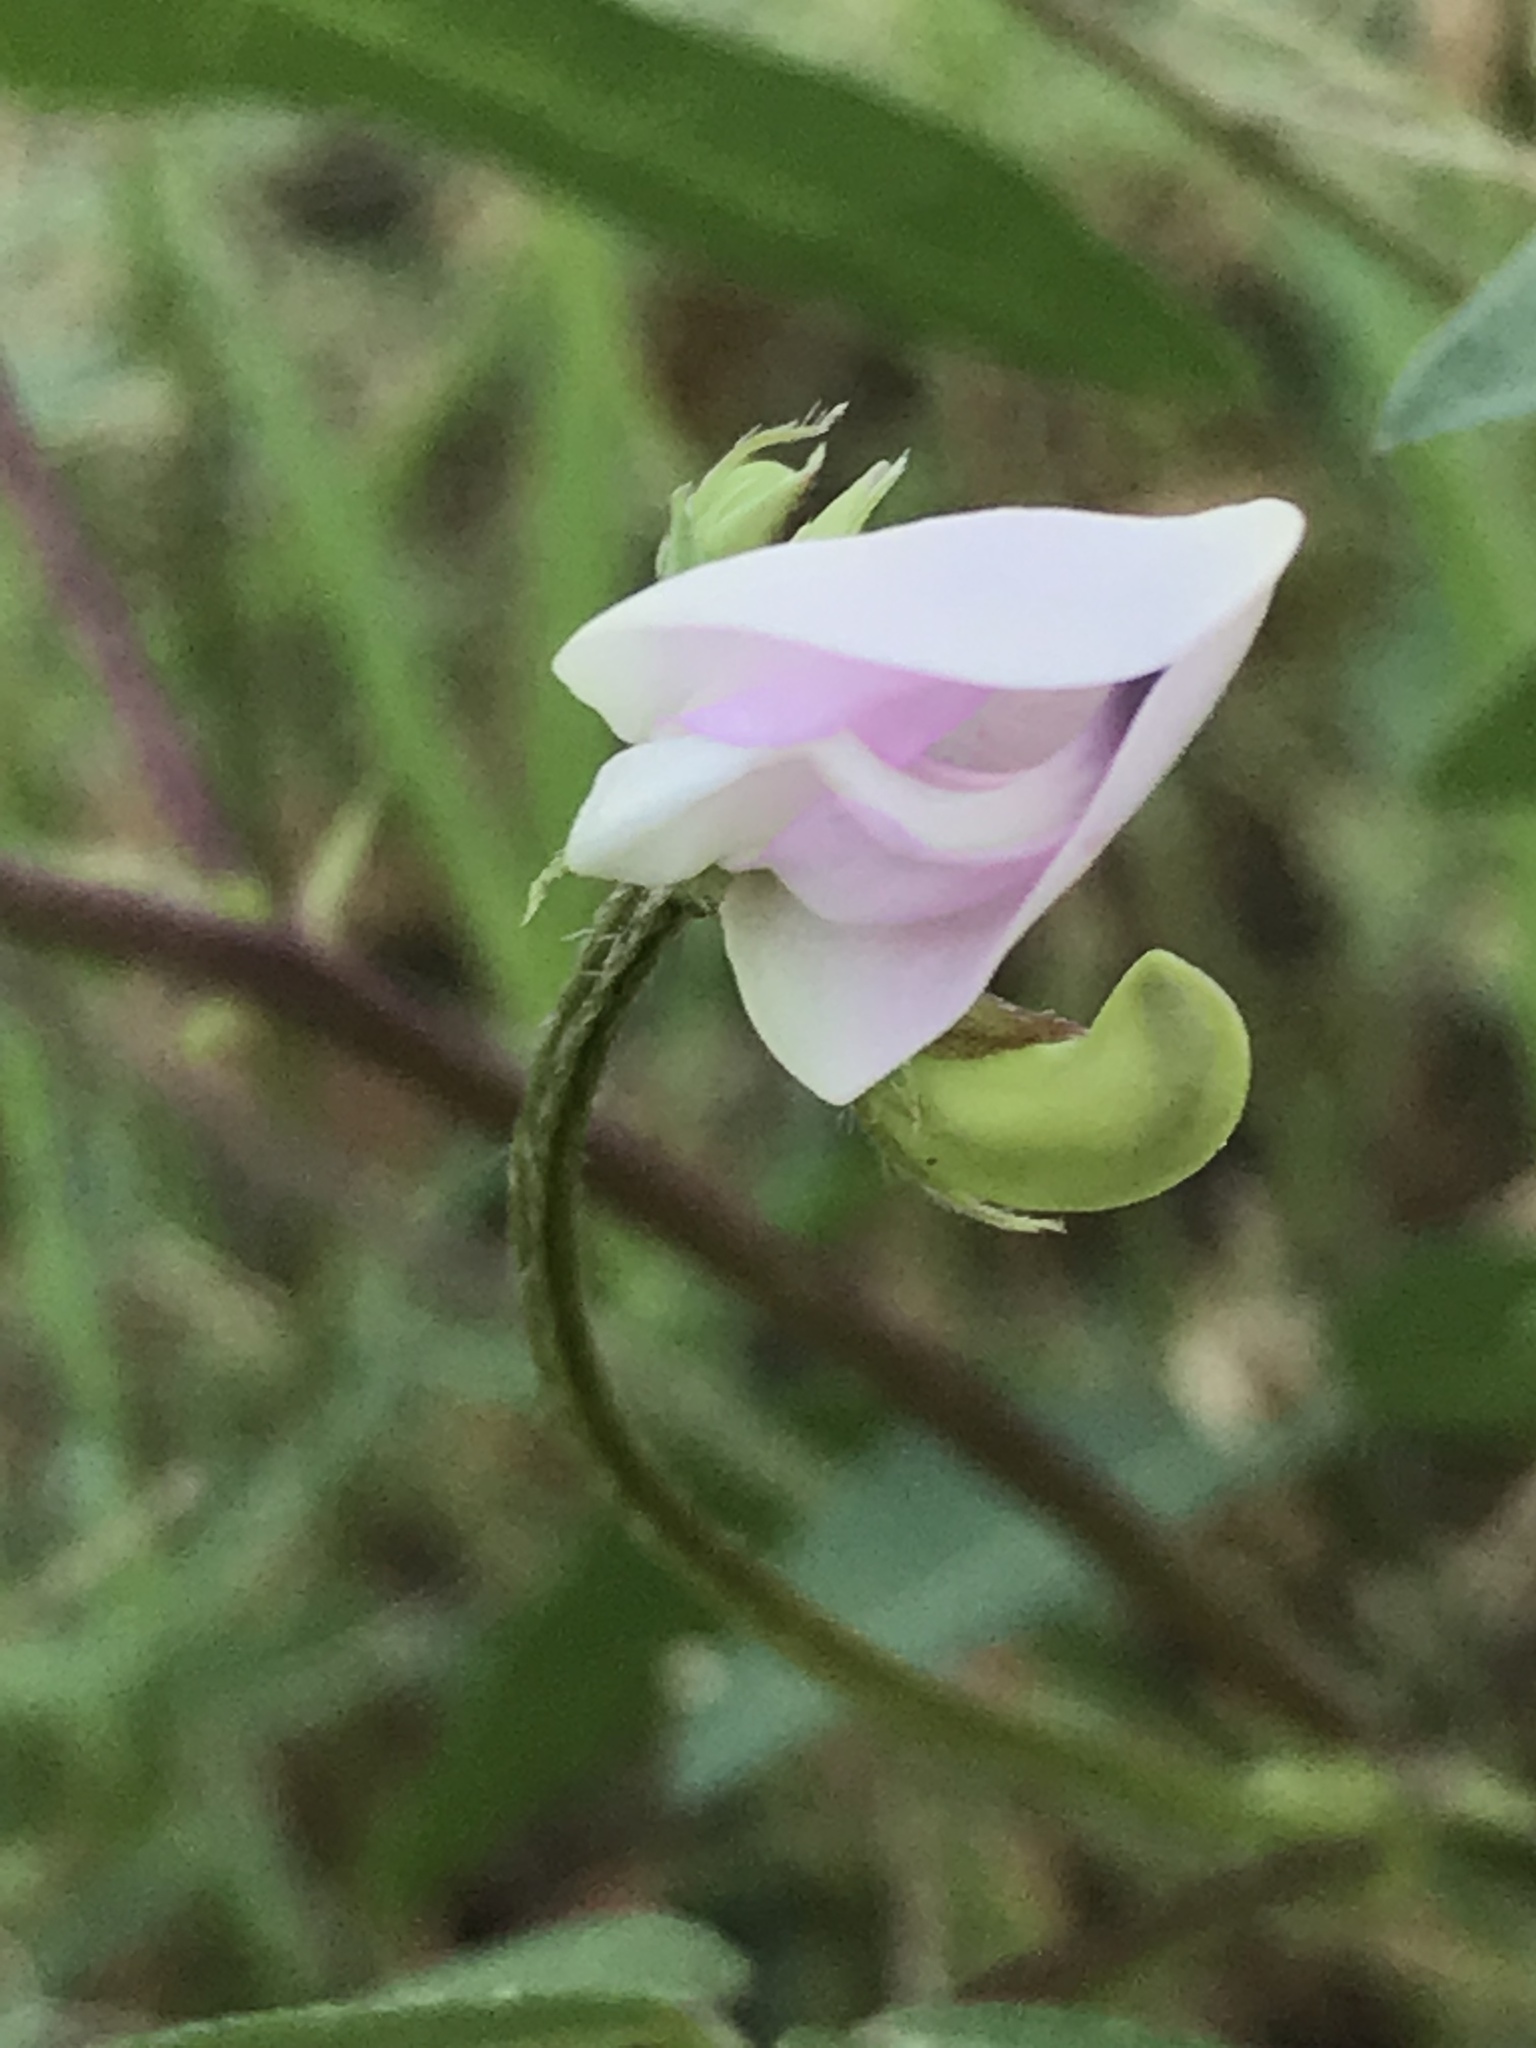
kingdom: Plantae
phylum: Tracheophyta
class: Magnoliopsida
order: Fabales
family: Fabaceae
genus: Strophostyles
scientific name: Strophostyles helvola
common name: Trailing wild bean
